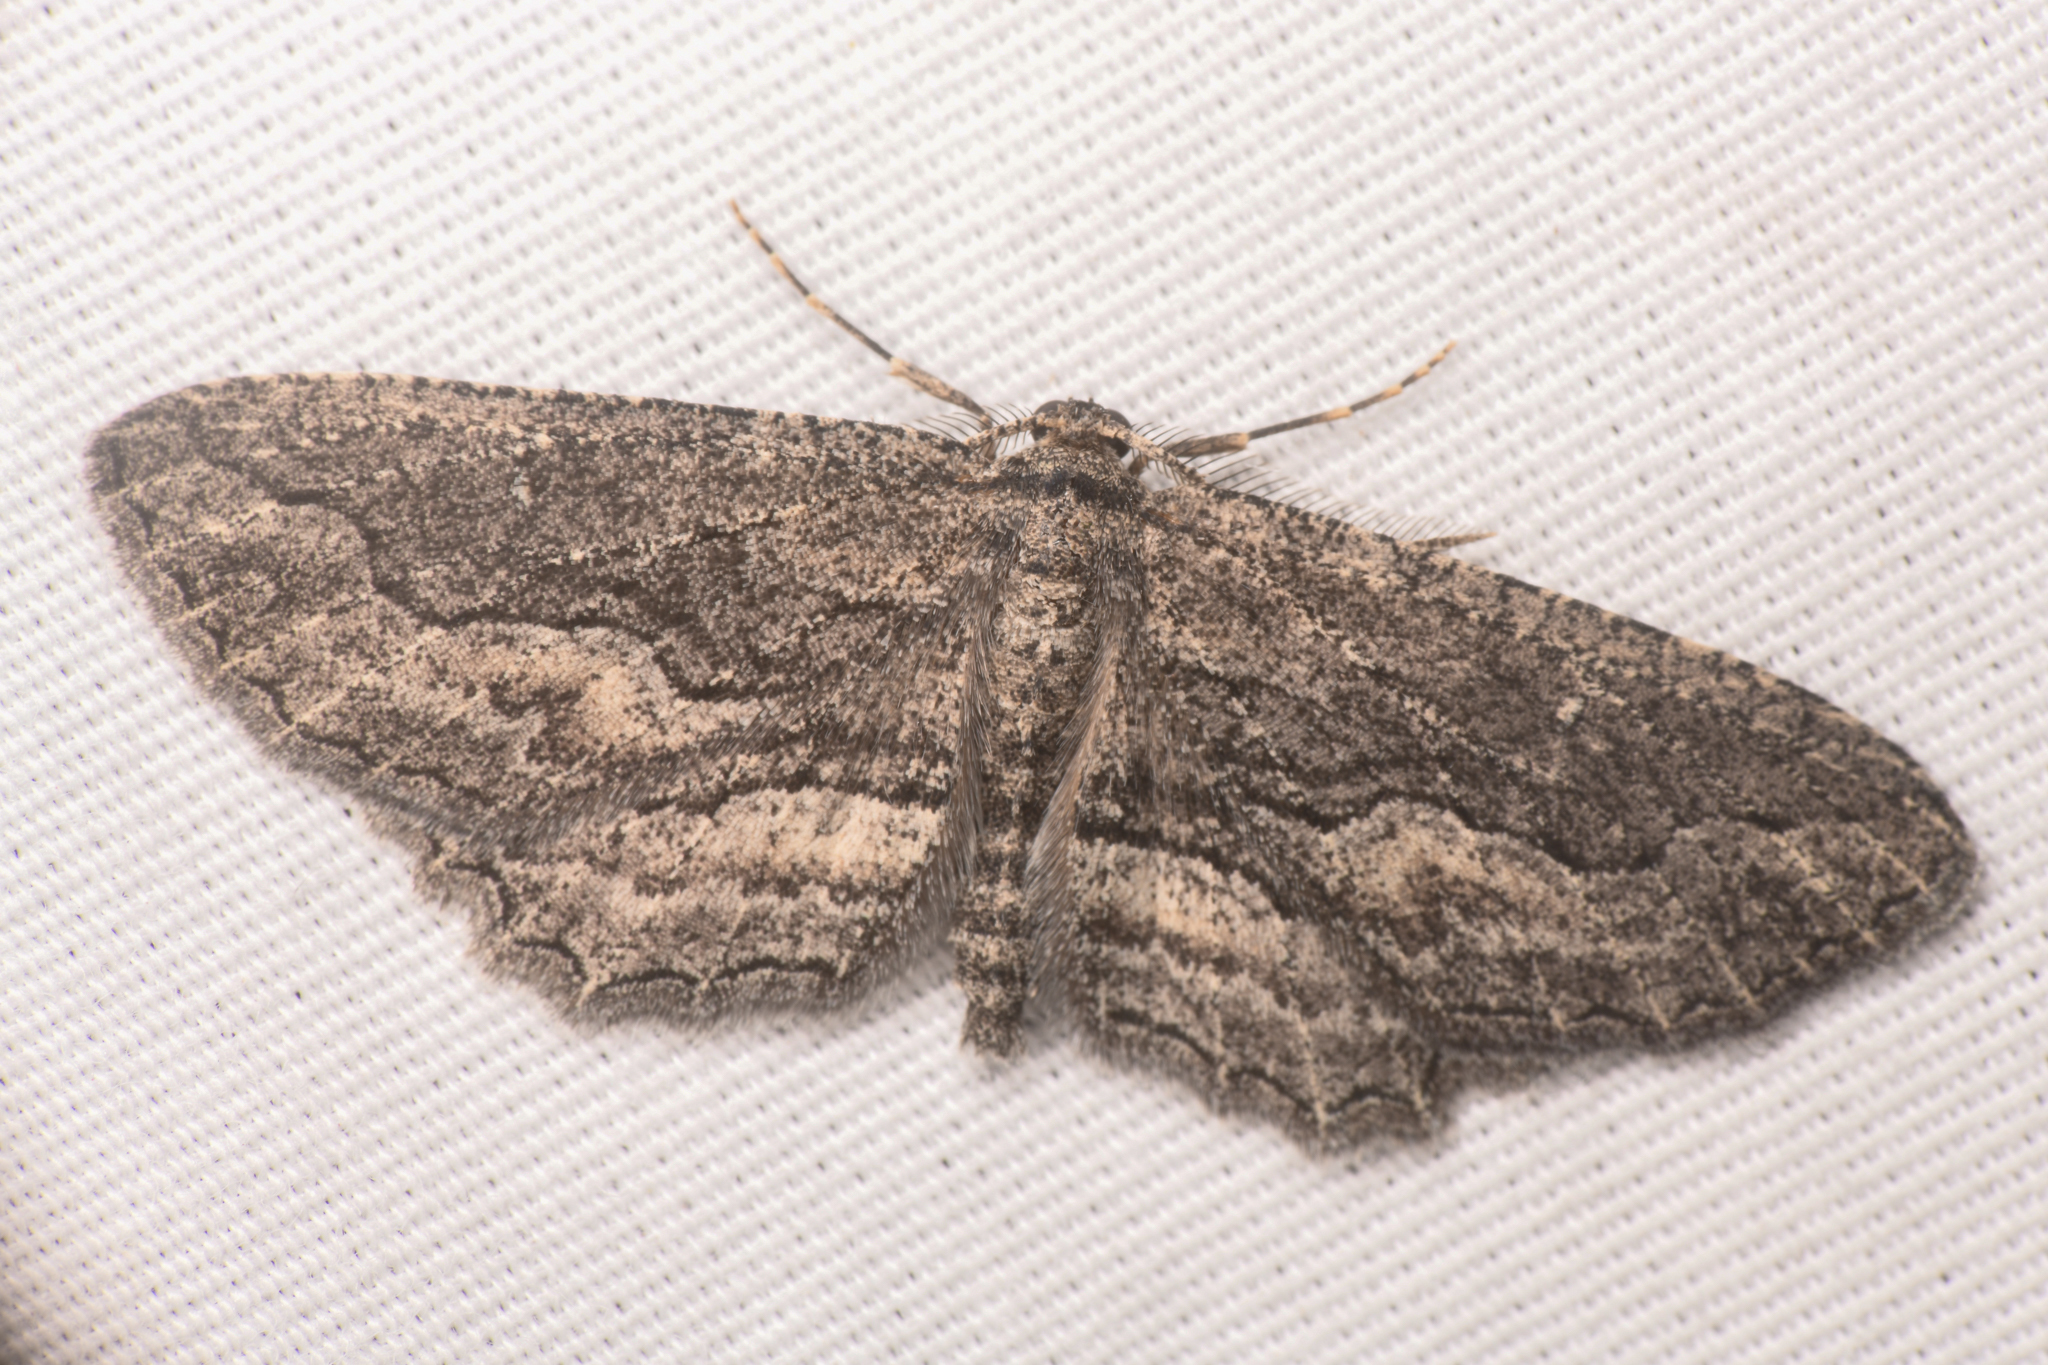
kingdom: Animalia
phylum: Arthropoda
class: Insecta
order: Lepidoptera
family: Geometridae
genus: Aethaloida
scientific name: Aethaloida packardaria
